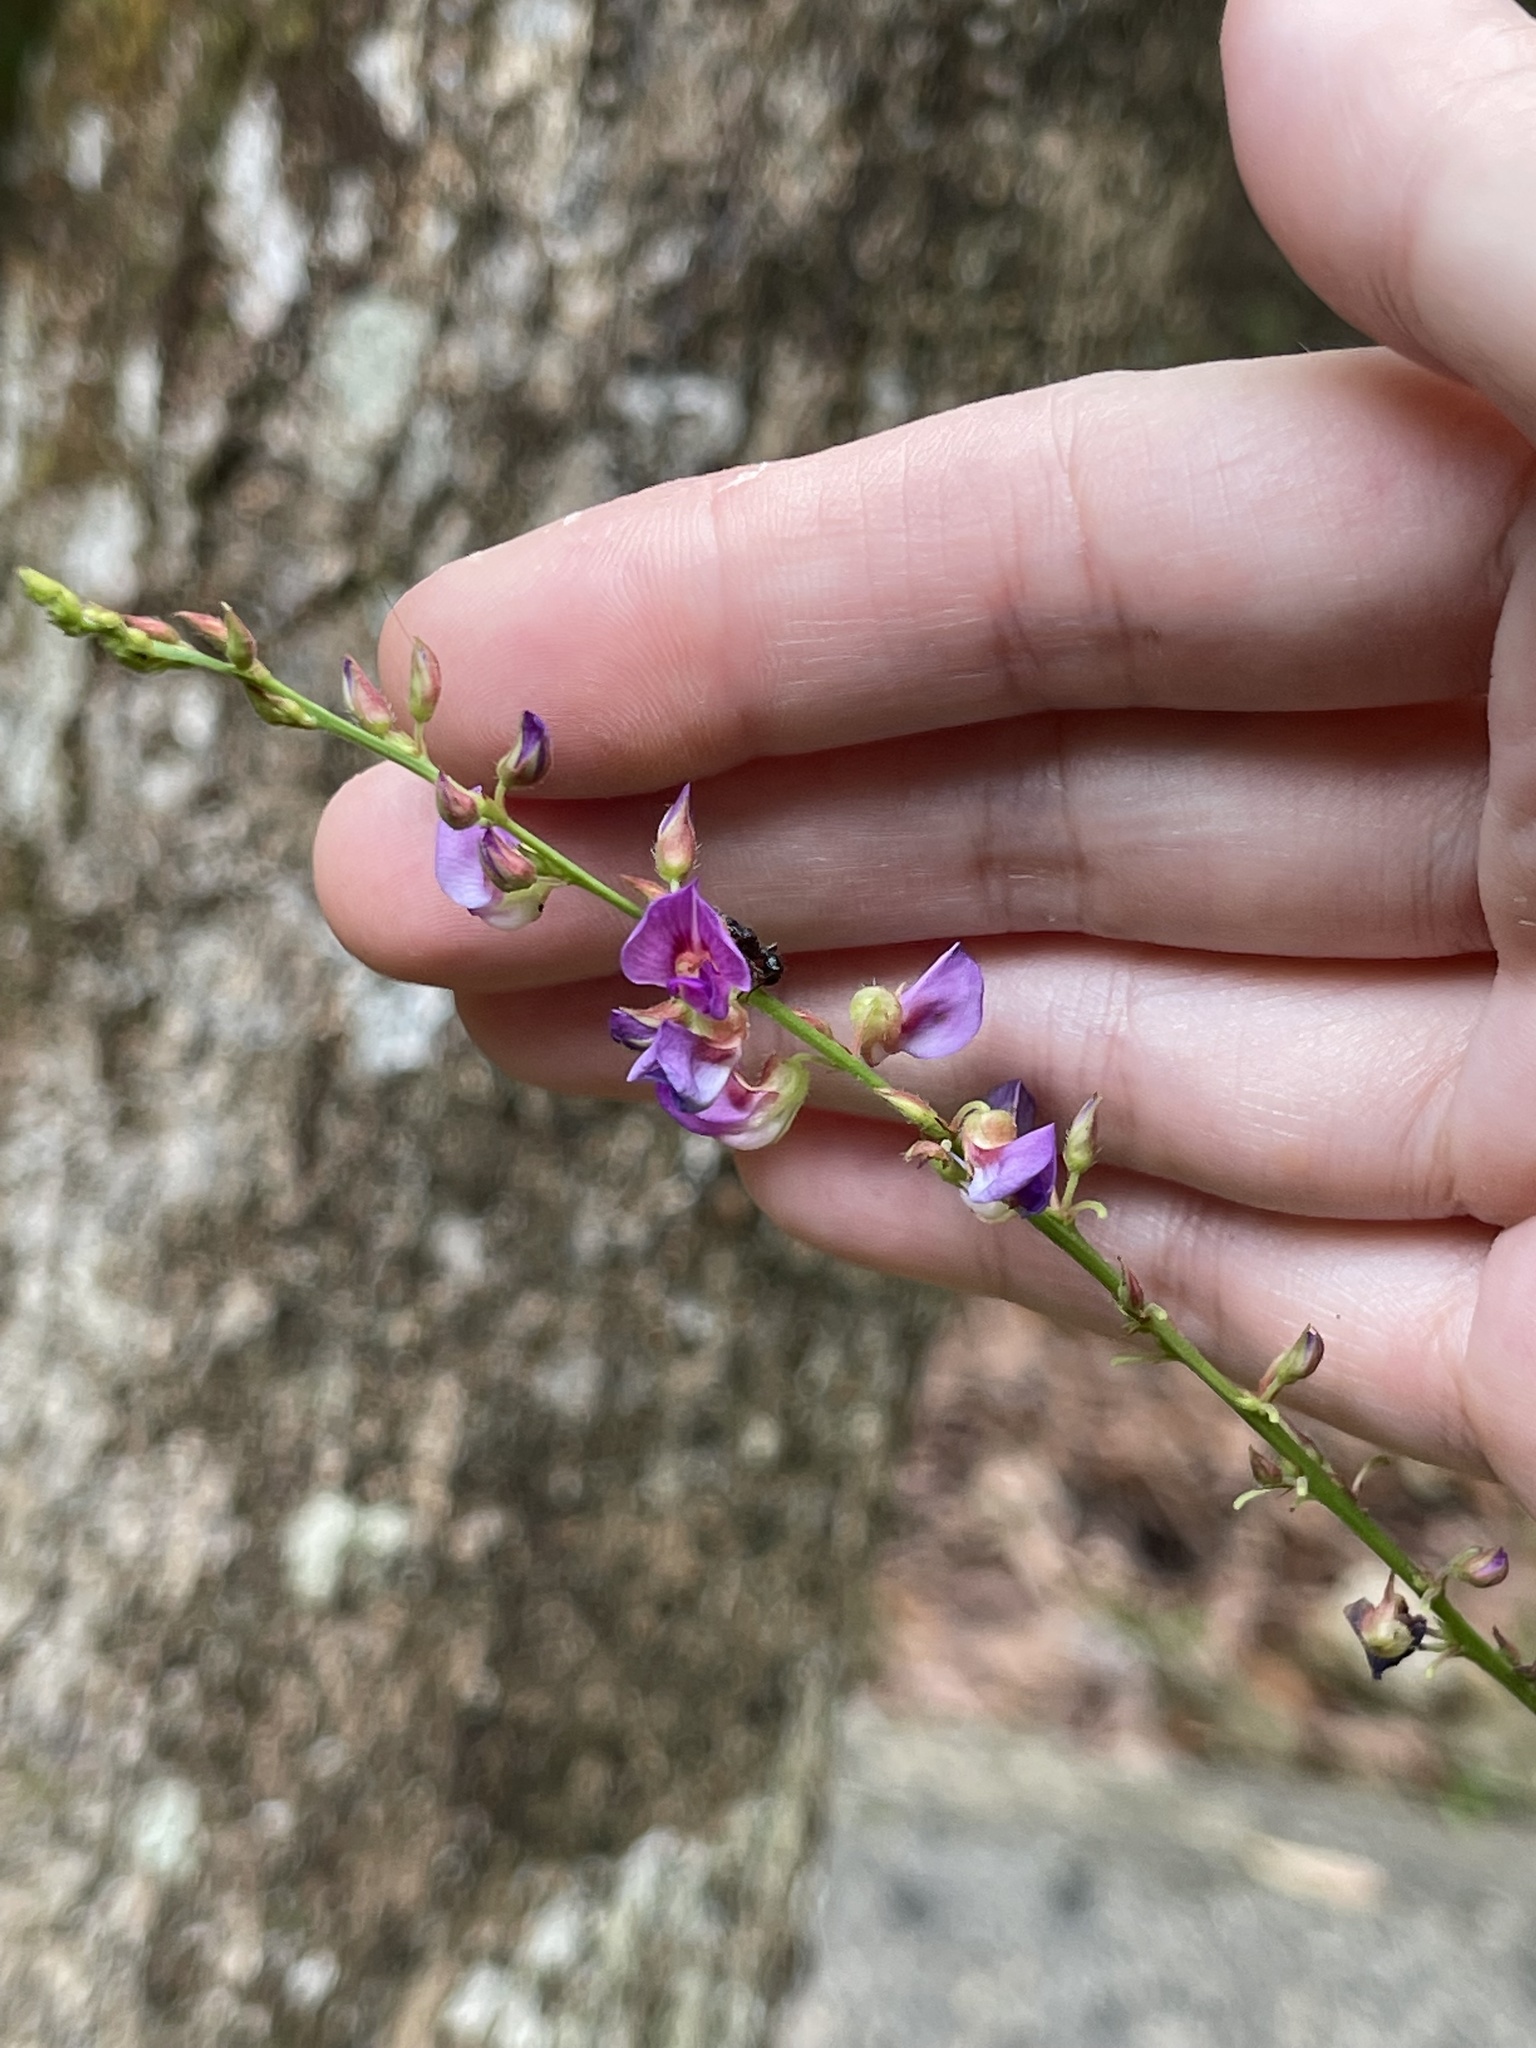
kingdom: Plantae
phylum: Tracheophyta
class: Magnoliopsida
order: Fabales
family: Fabaceae
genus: Tadehagi
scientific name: Tadehagi triquetrum
